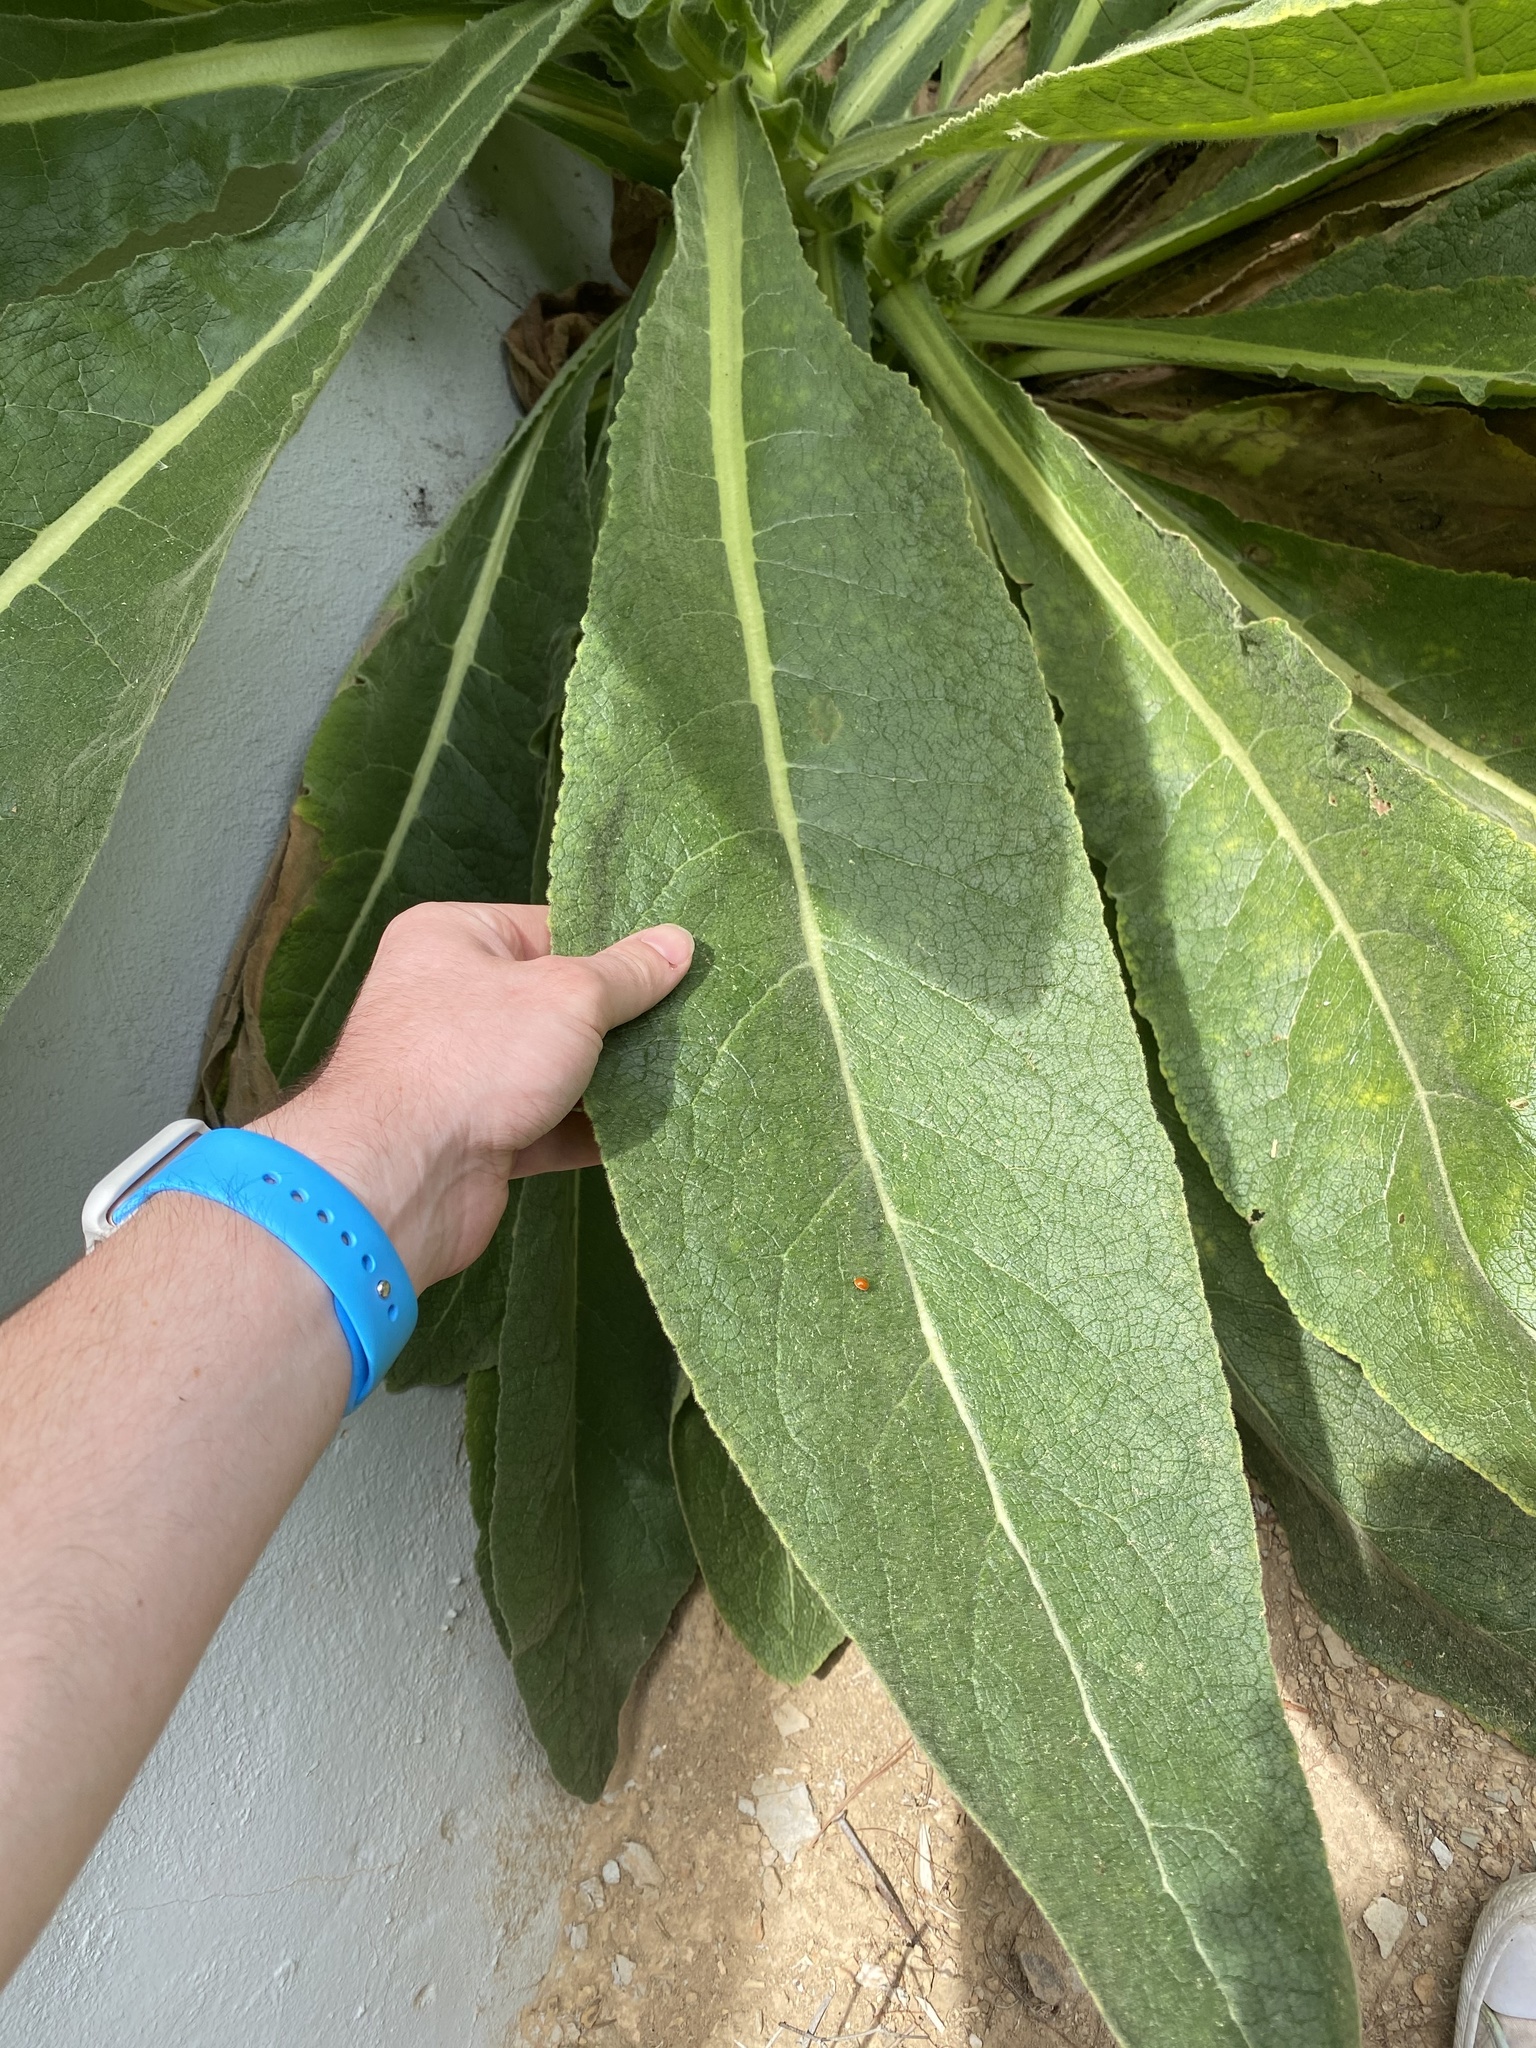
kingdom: Plantae
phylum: Tracheophyta
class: Magnoliopsida
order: Lamiales
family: Scrophulariaceae
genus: Verbascum
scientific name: Verbascum thapsus
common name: Common mullein
